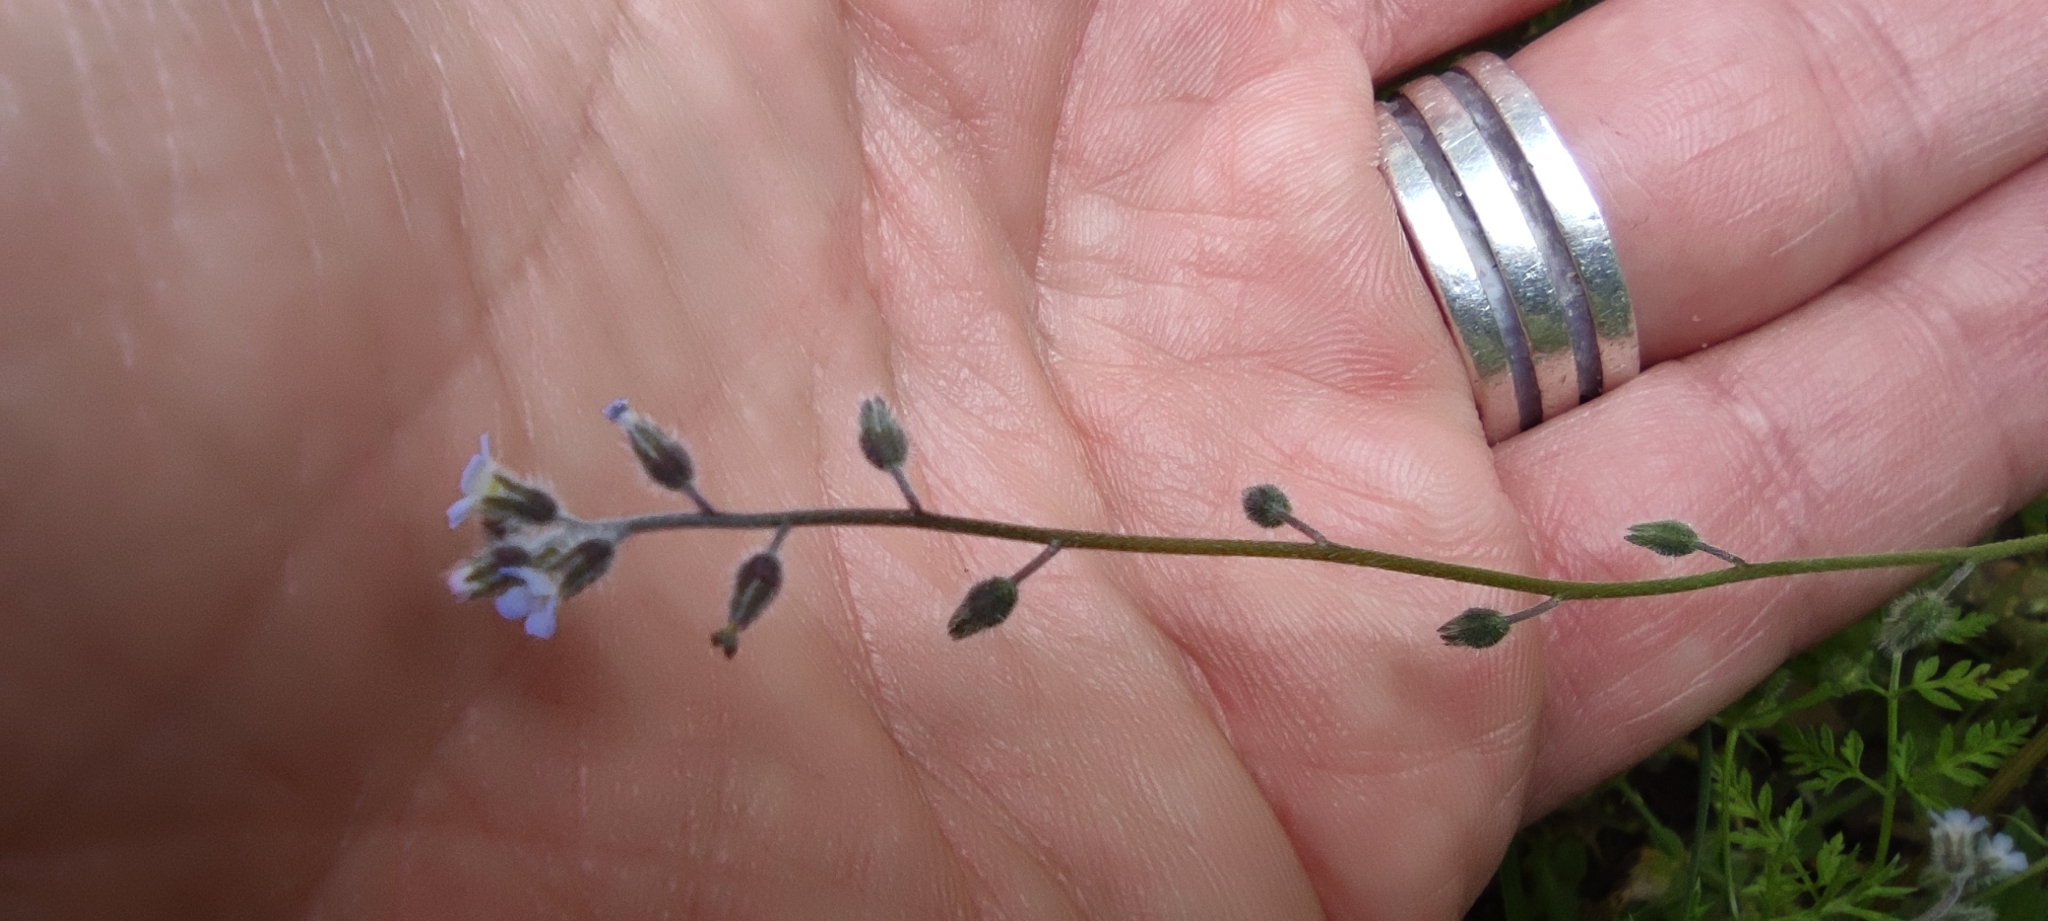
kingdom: Plantae
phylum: Tracheophyta
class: Magnoliopsida
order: Boraginales
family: Boraginaceae
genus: Myosotis
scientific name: Myosotis ramosissima
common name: Early forget-me-not
